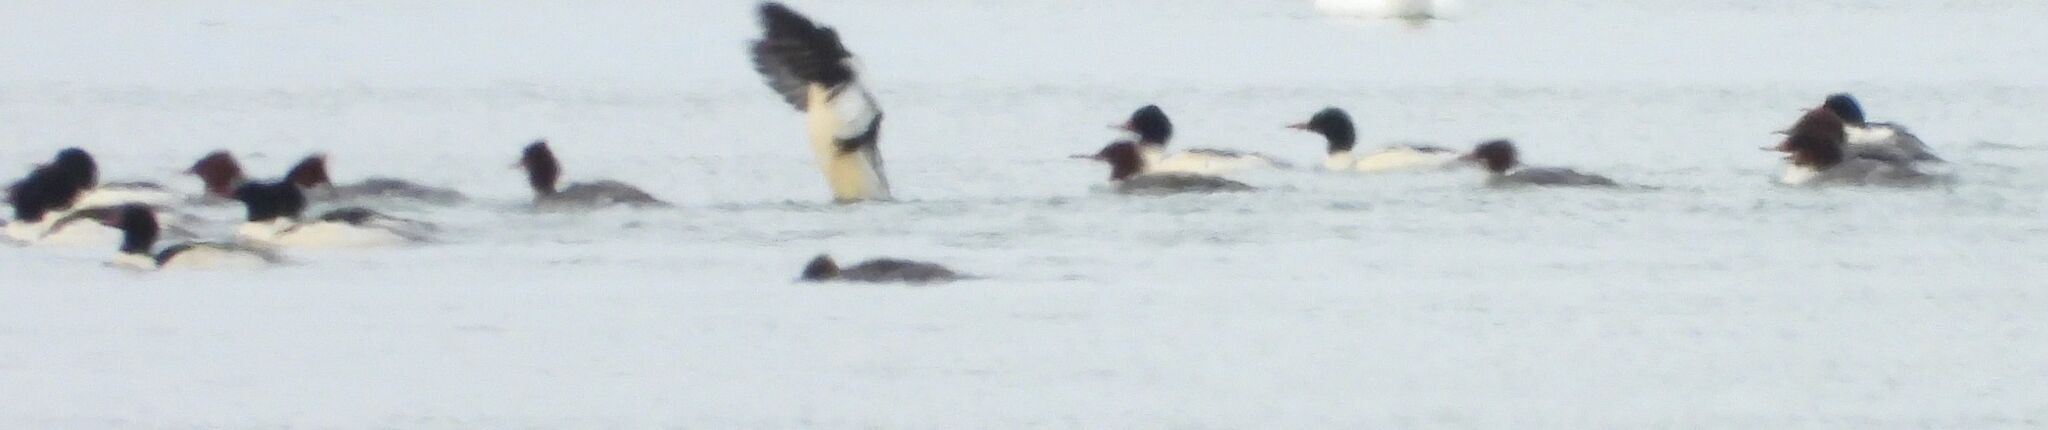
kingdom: Animalia
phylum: Chordata
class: Aves
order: Anseriformes
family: Anatidae
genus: Mergus
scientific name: Mergus merganser
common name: Common merganser
